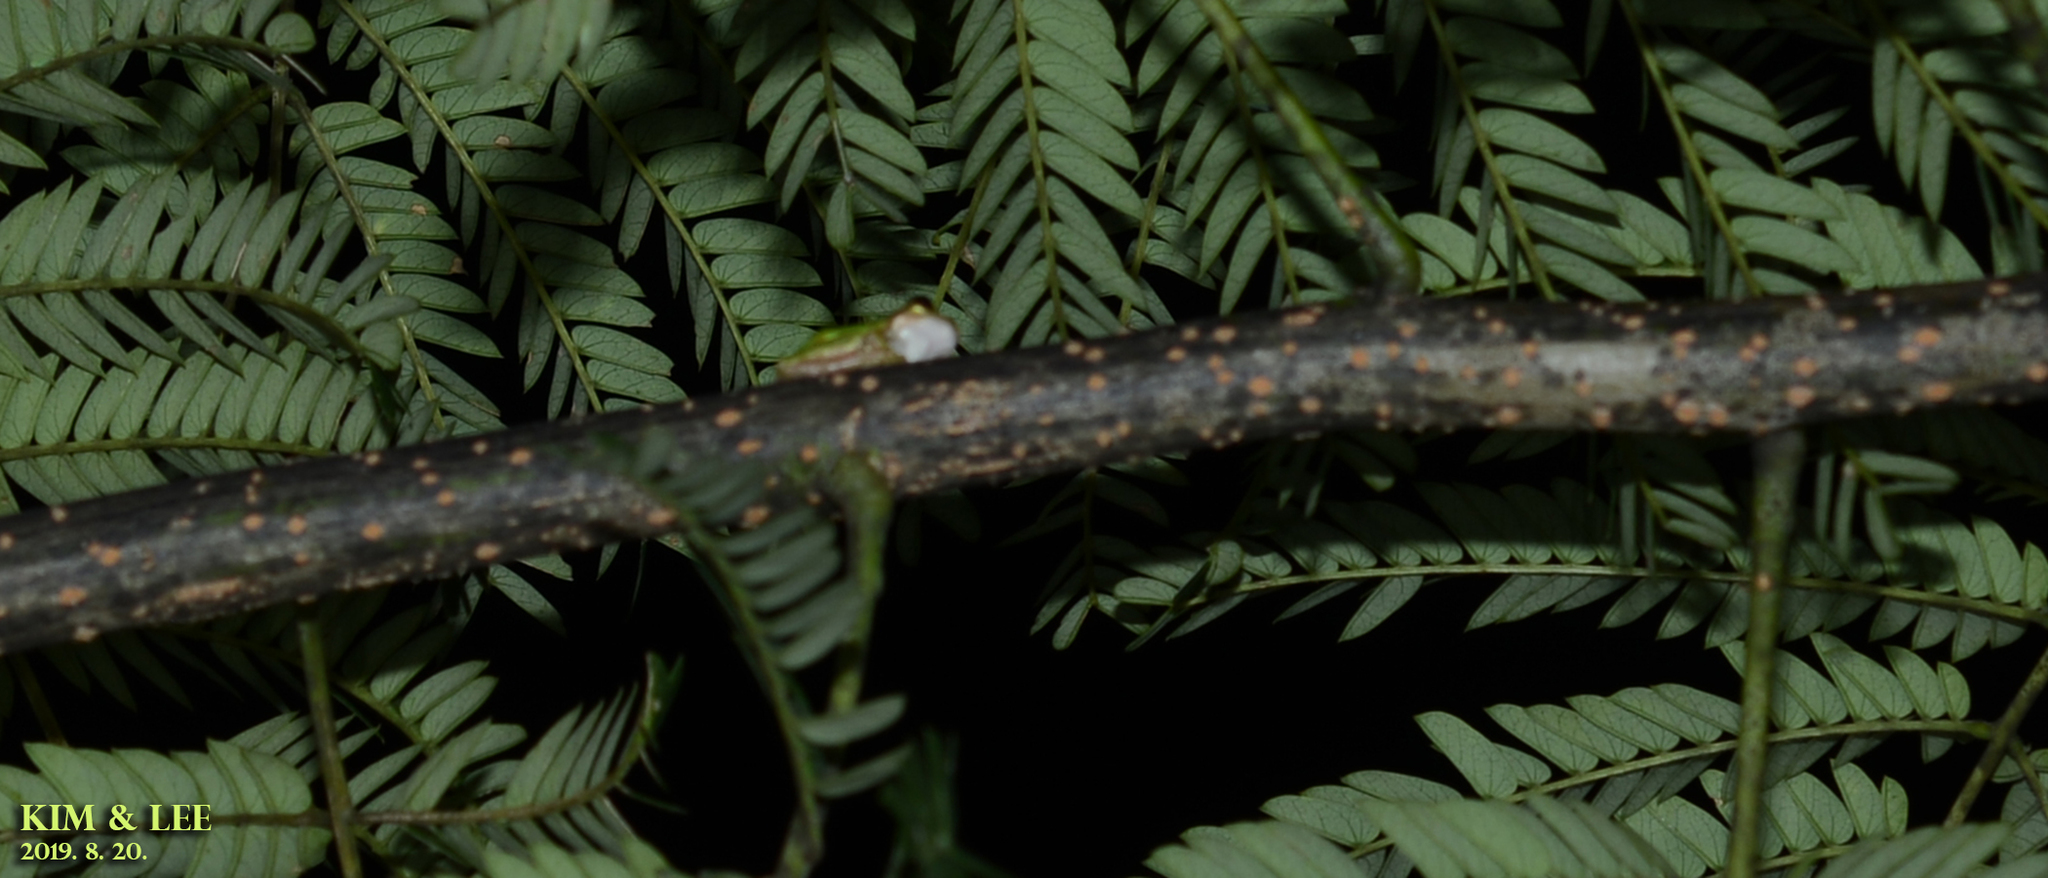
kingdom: Animalia
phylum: Chordata
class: Amphibia
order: Anura
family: Hylidae
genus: Dryophytes
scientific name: Dryophytes japonicus
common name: Japanese treefrog
